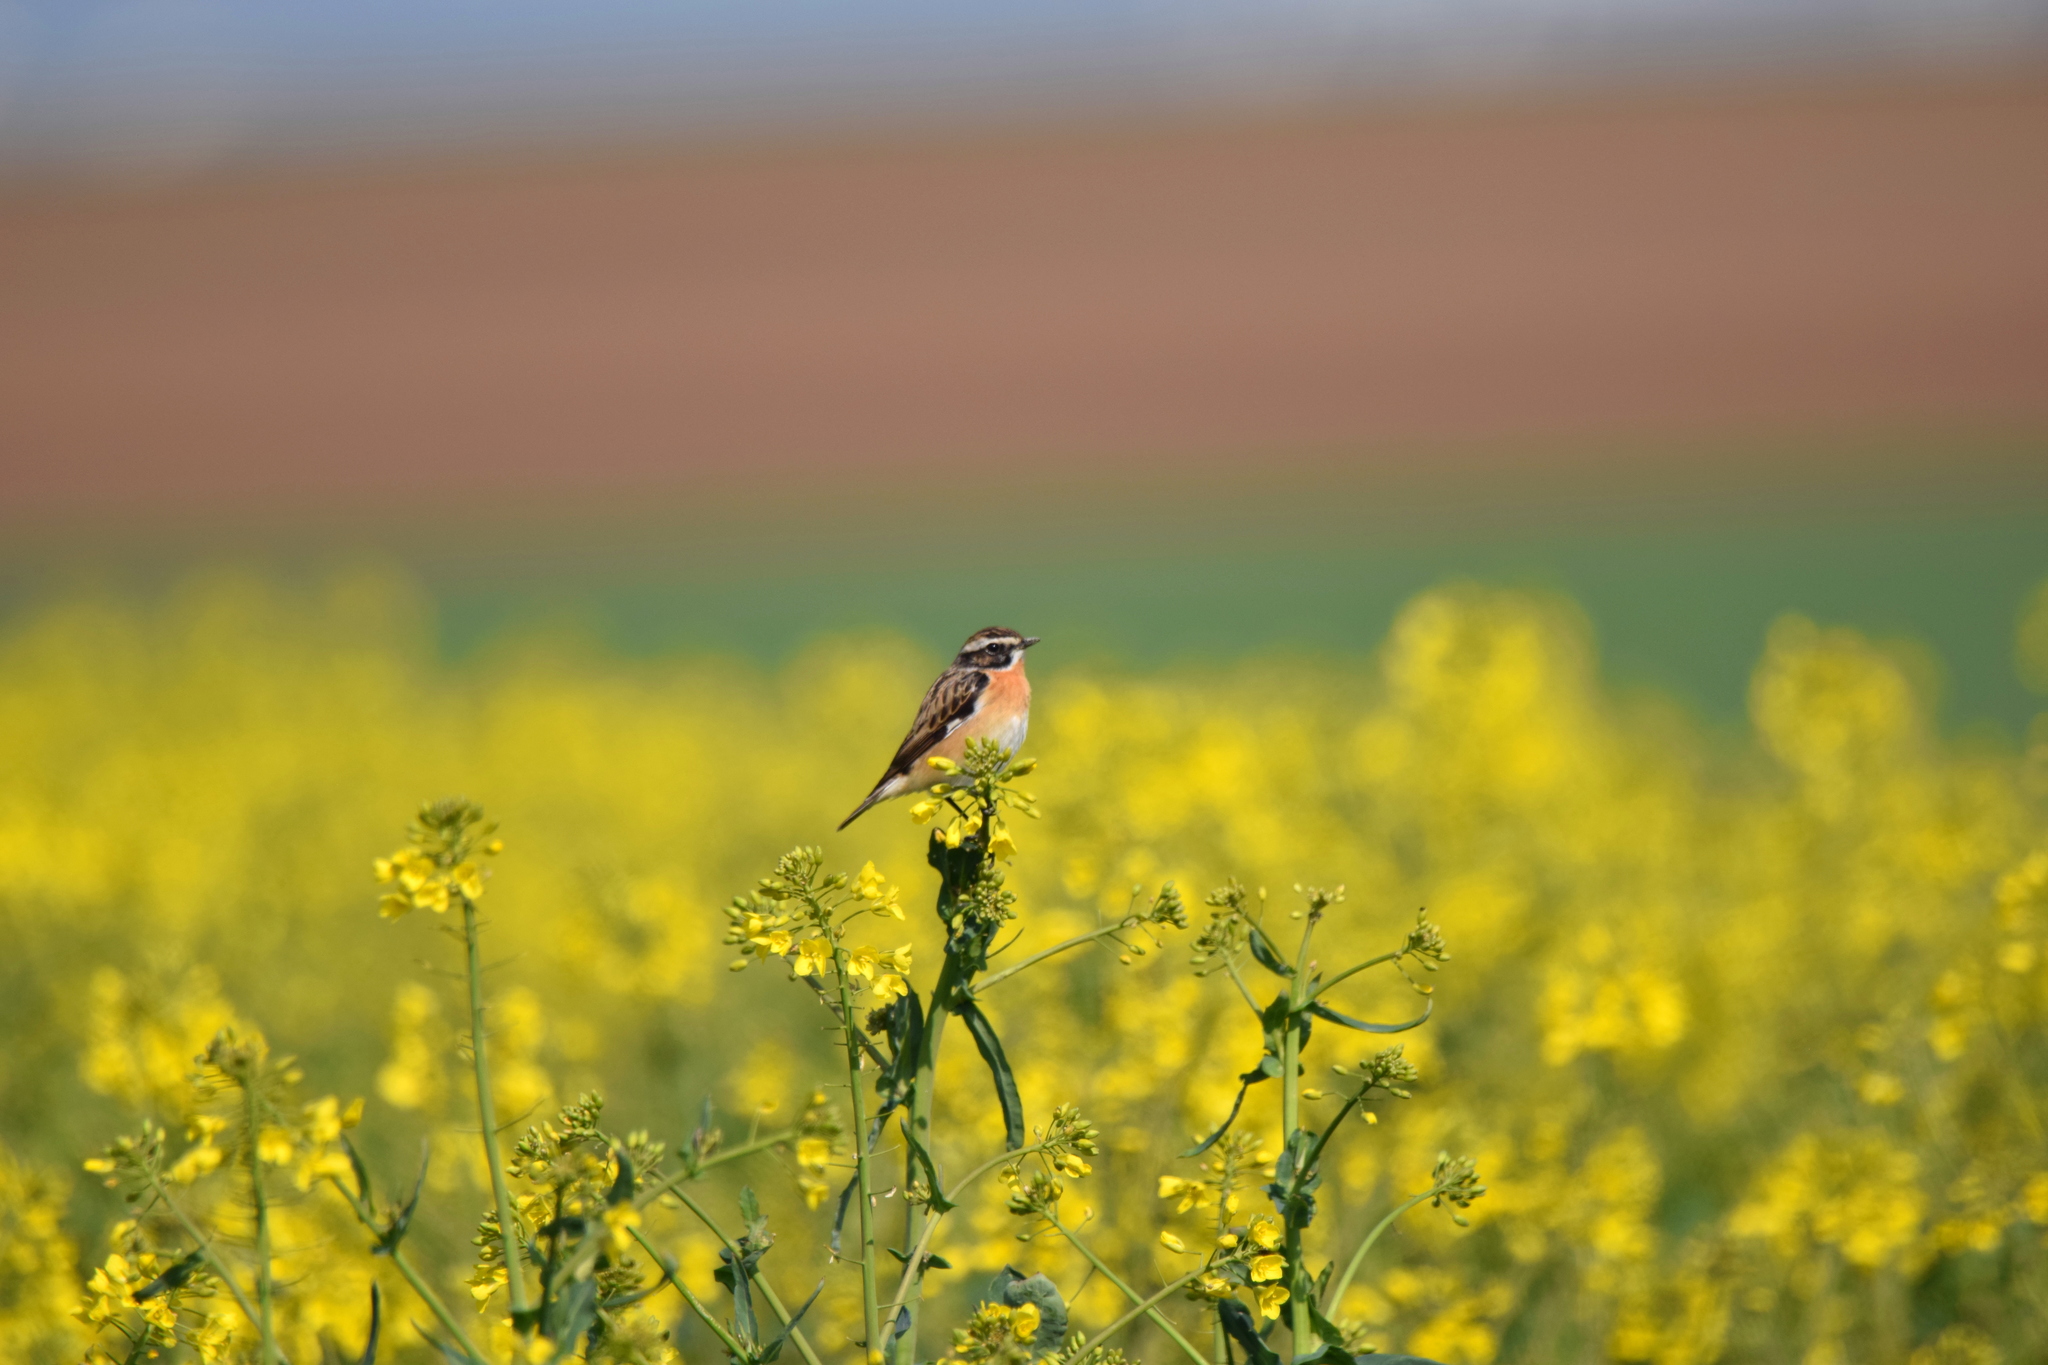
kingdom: Animalia
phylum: Chordata
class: Aves
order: Passeriformes
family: Muscicapidae
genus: Saxicola
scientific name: Saxicola rubetra
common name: Whinchat
